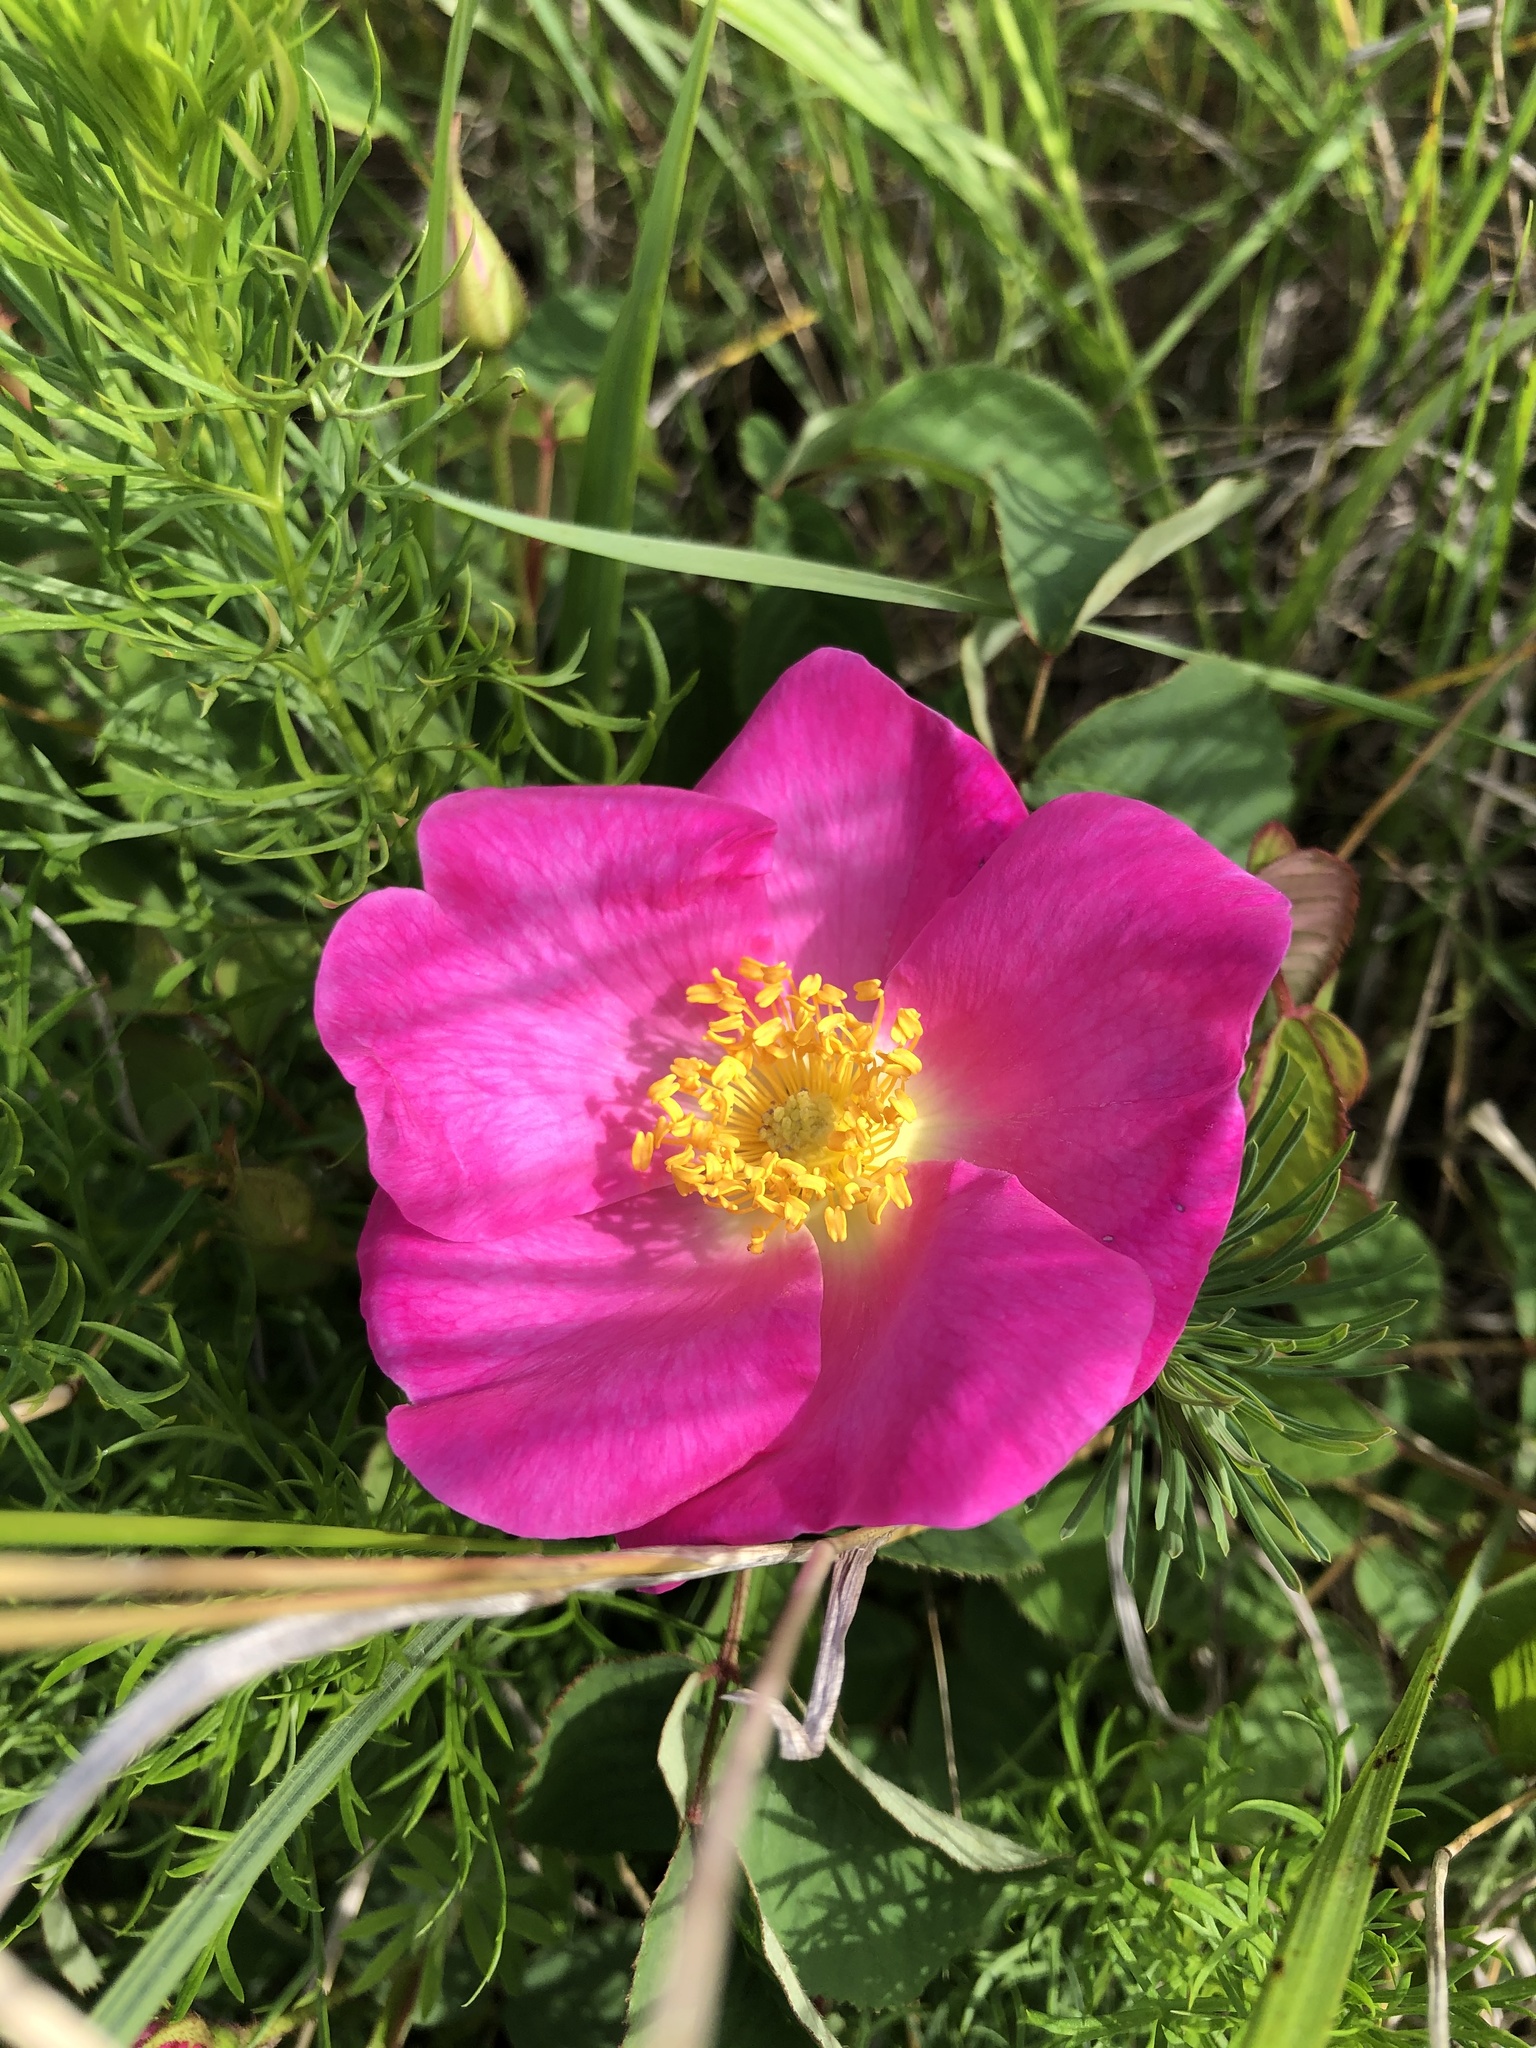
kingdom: Plantae
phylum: Tracheophyta
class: Magnoliopsida
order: Rosales
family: Rosaceae
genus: Rosa
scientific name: Rosa gallica
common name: French rose
